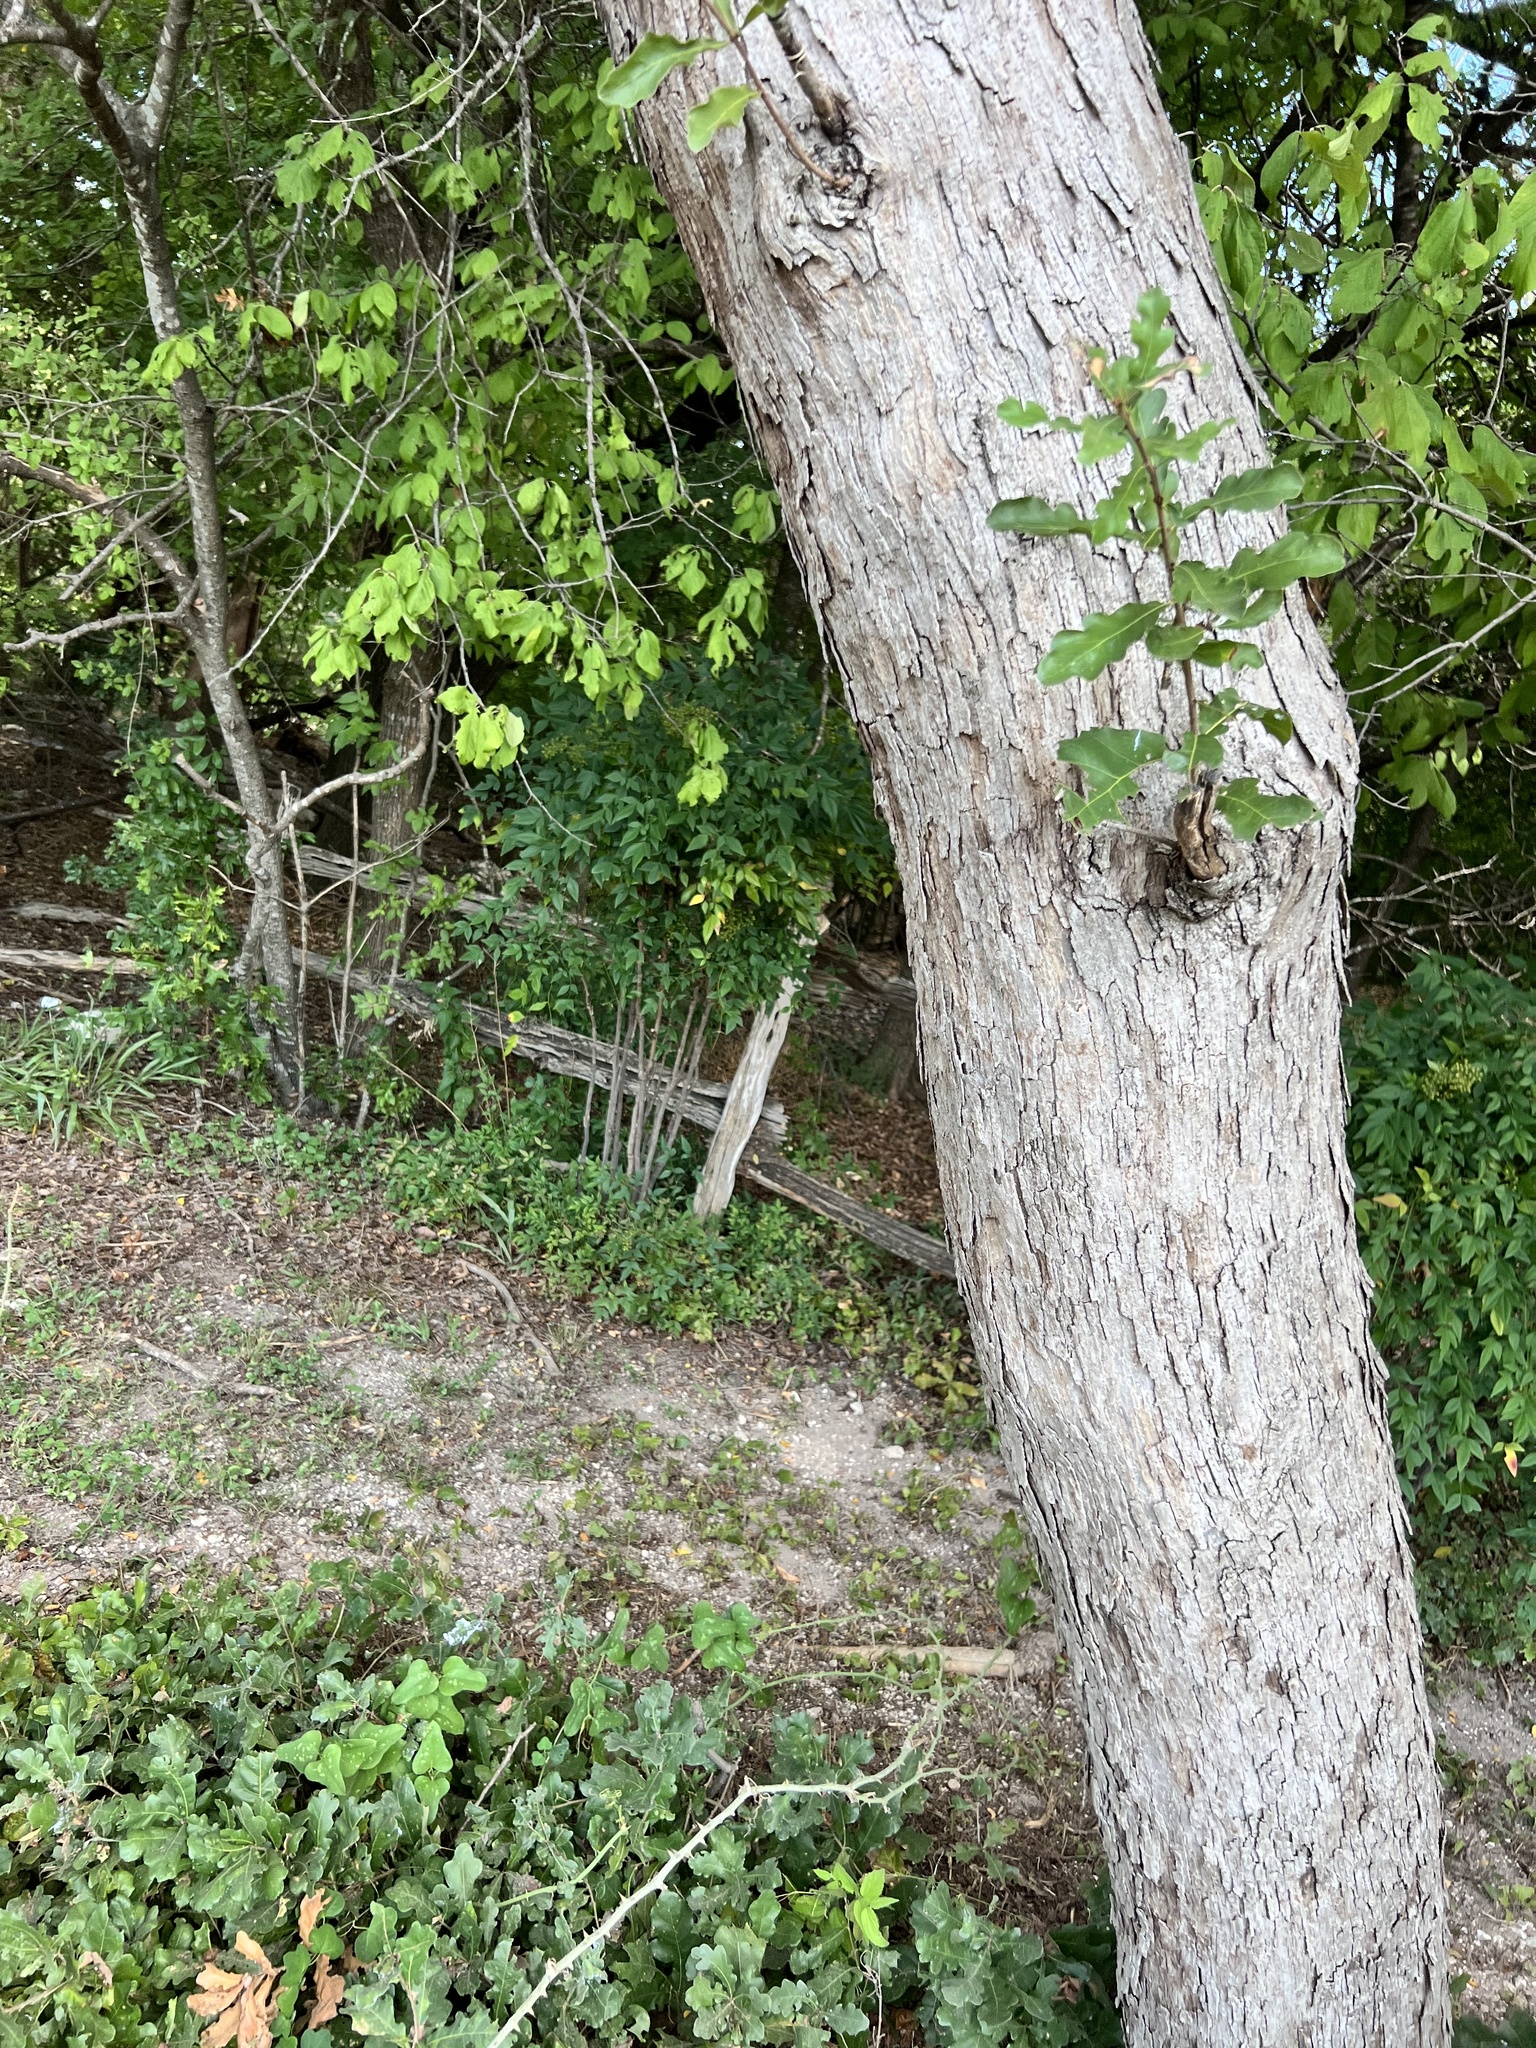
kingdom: Plantae
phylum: Tracheophyta
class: Magnoliopsida
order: Fagales
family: Fagaceae
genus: Quercus
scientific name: Quercus sinuata
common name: Durand oak
